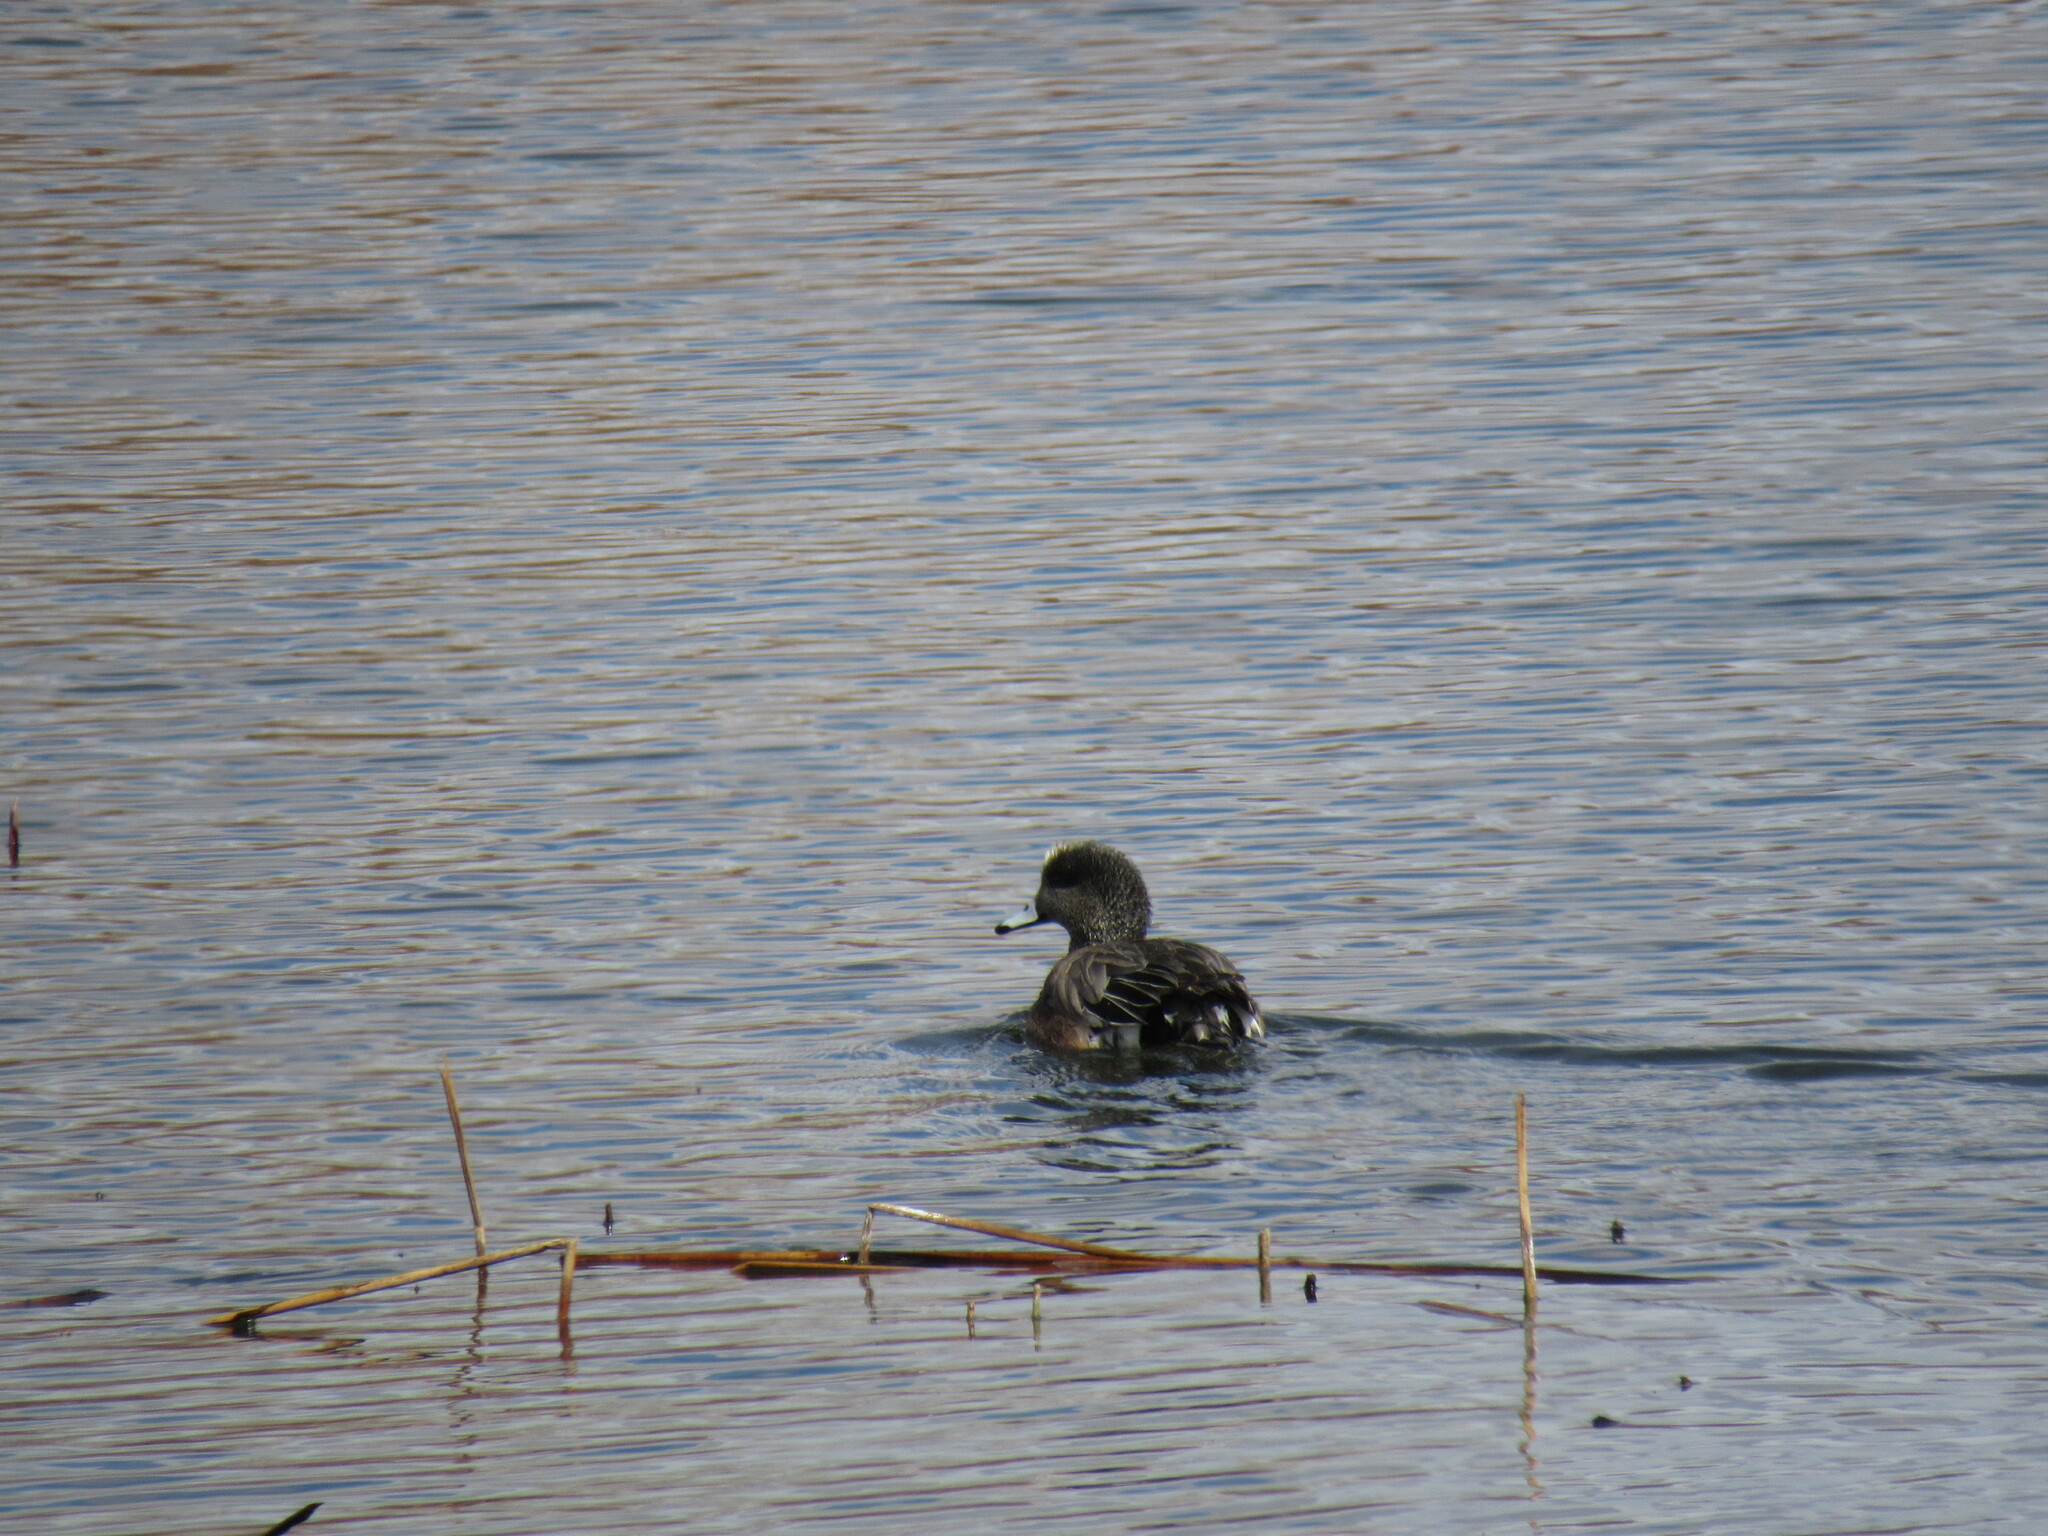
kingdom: Animalia
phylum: Chordata
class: Aves
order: Anseriformes
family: Anatidae
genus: Mareca
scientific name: Mareca americana
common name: American wigeon
